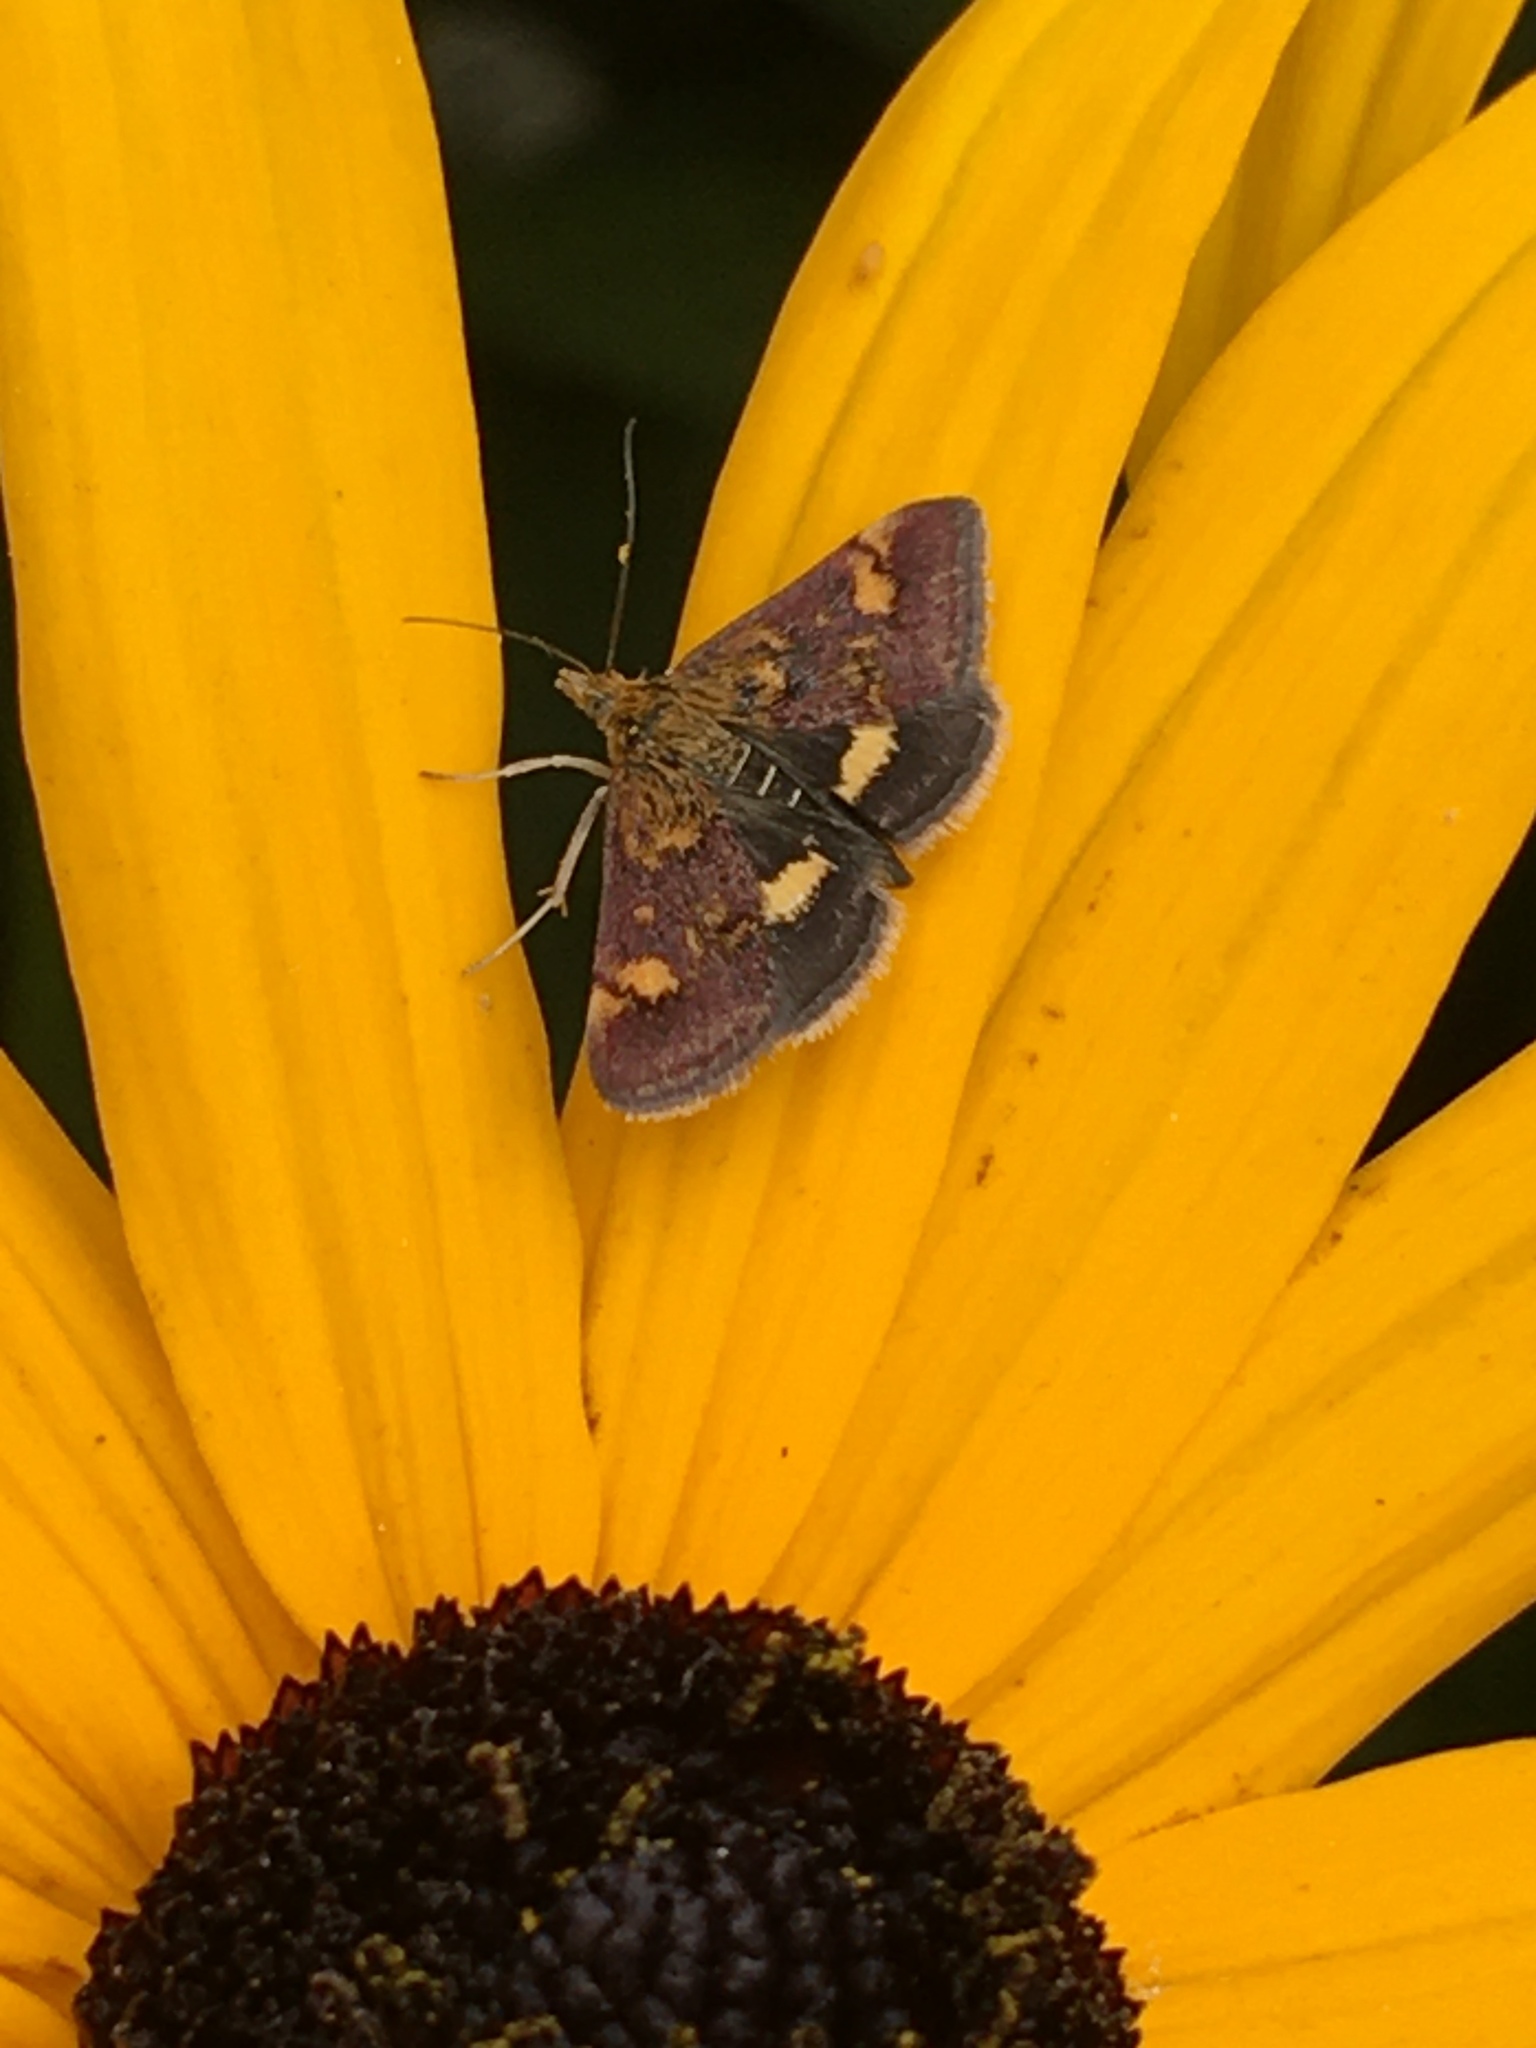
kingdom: Animalia
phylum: Arthropoda
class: Insecta
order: Lepidoptera
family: Crambidae
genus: Pyrausta
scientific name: Pyrausta aurata
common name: Small purple & gold
